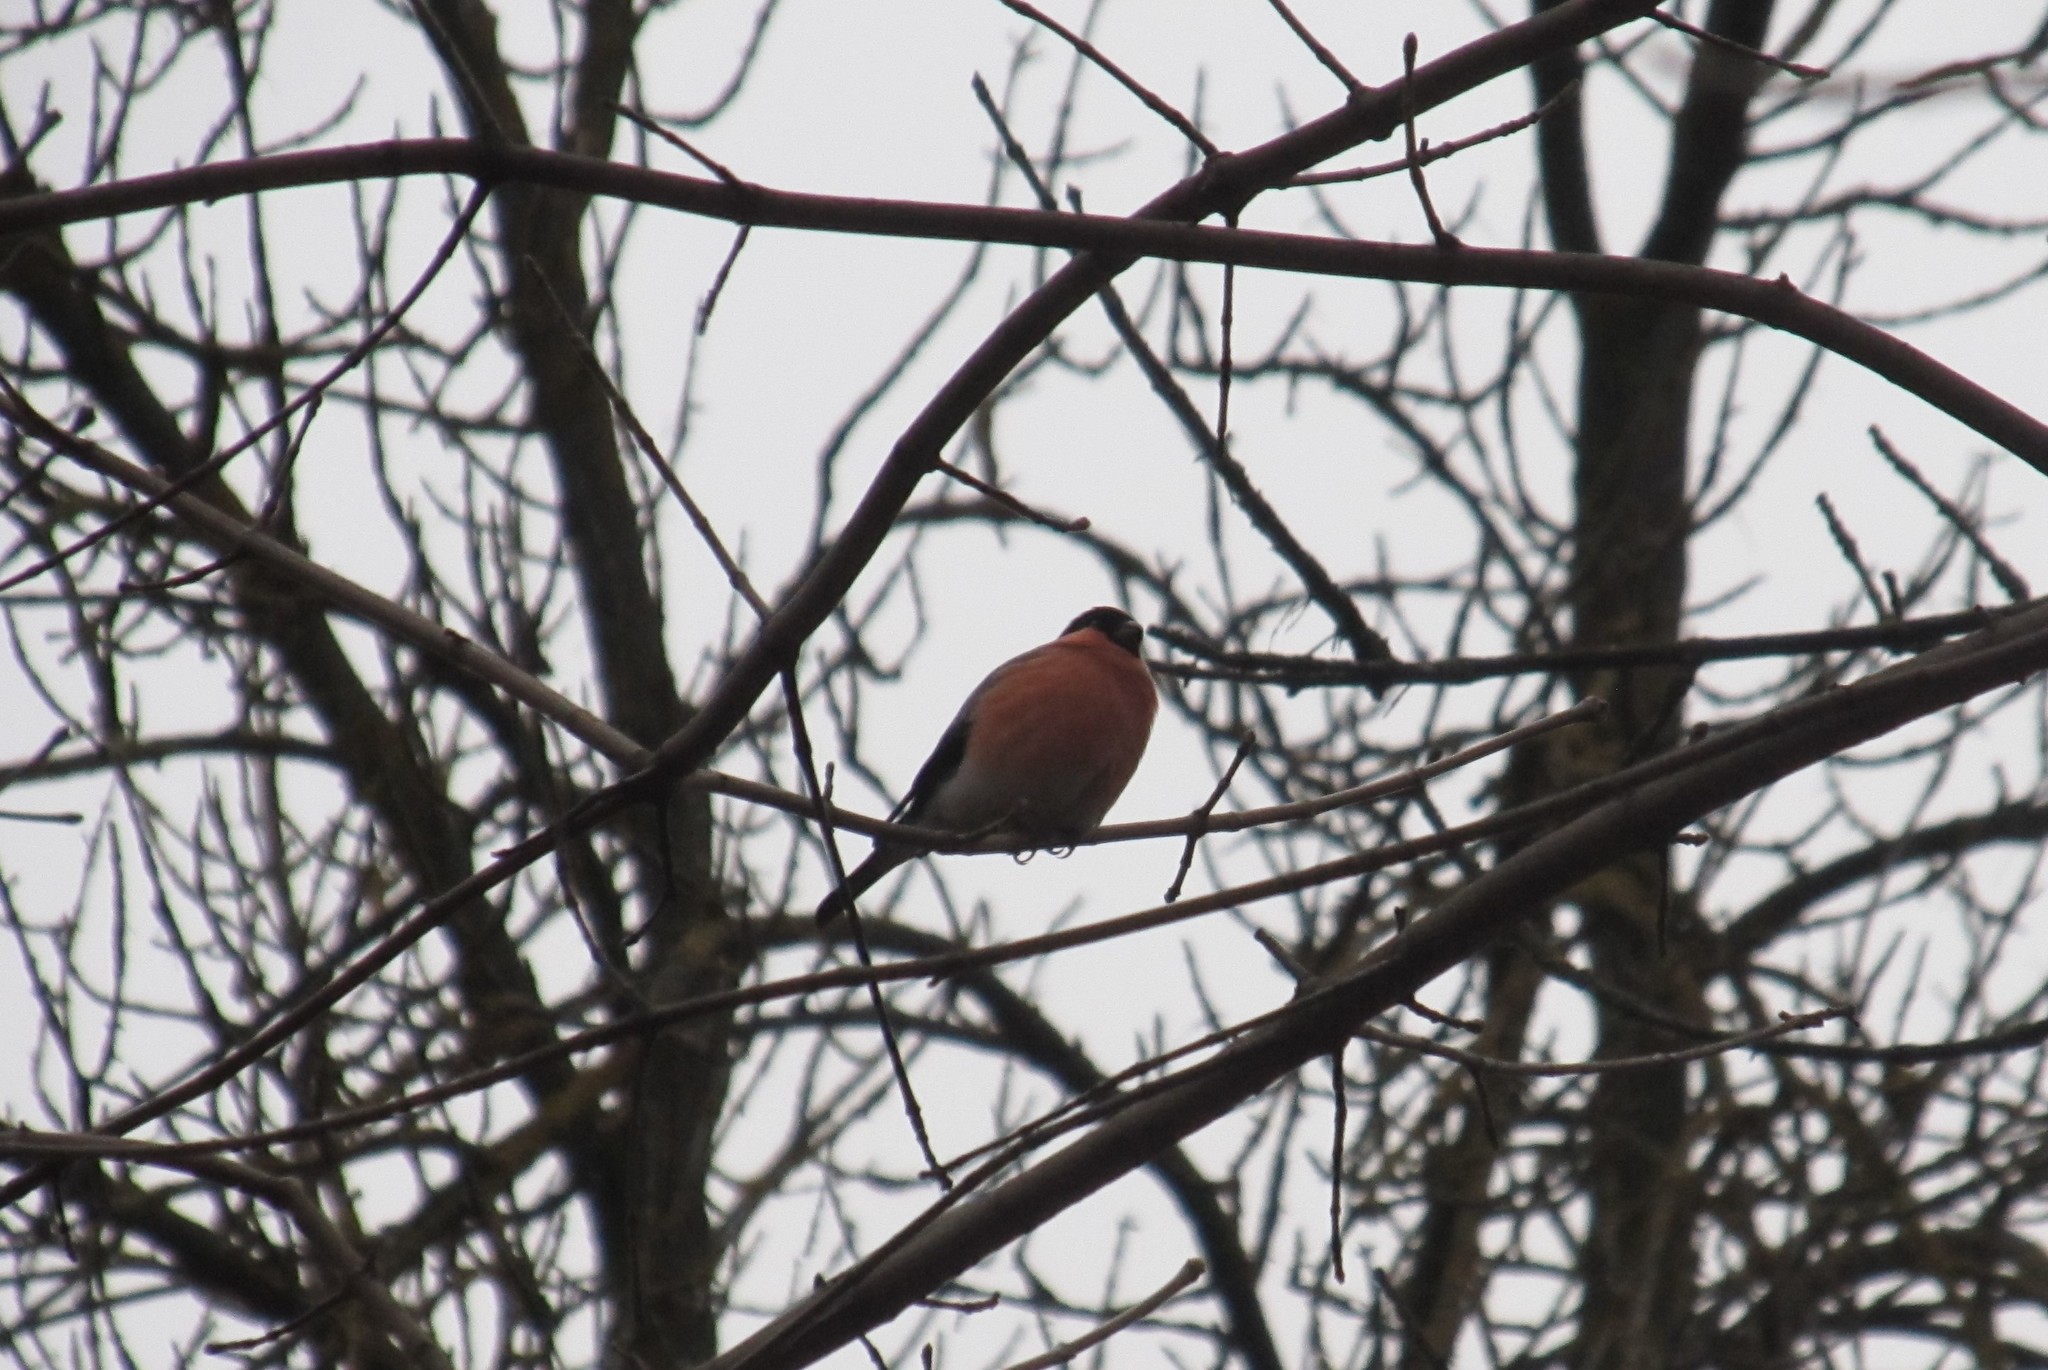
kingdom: Animalia
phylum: Chordata
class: Aves
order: Passeriformes
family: Fringillidae
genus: Pyrrhula
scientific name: Pyrrhula pyrrhula
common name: Eurasian bullfinch
